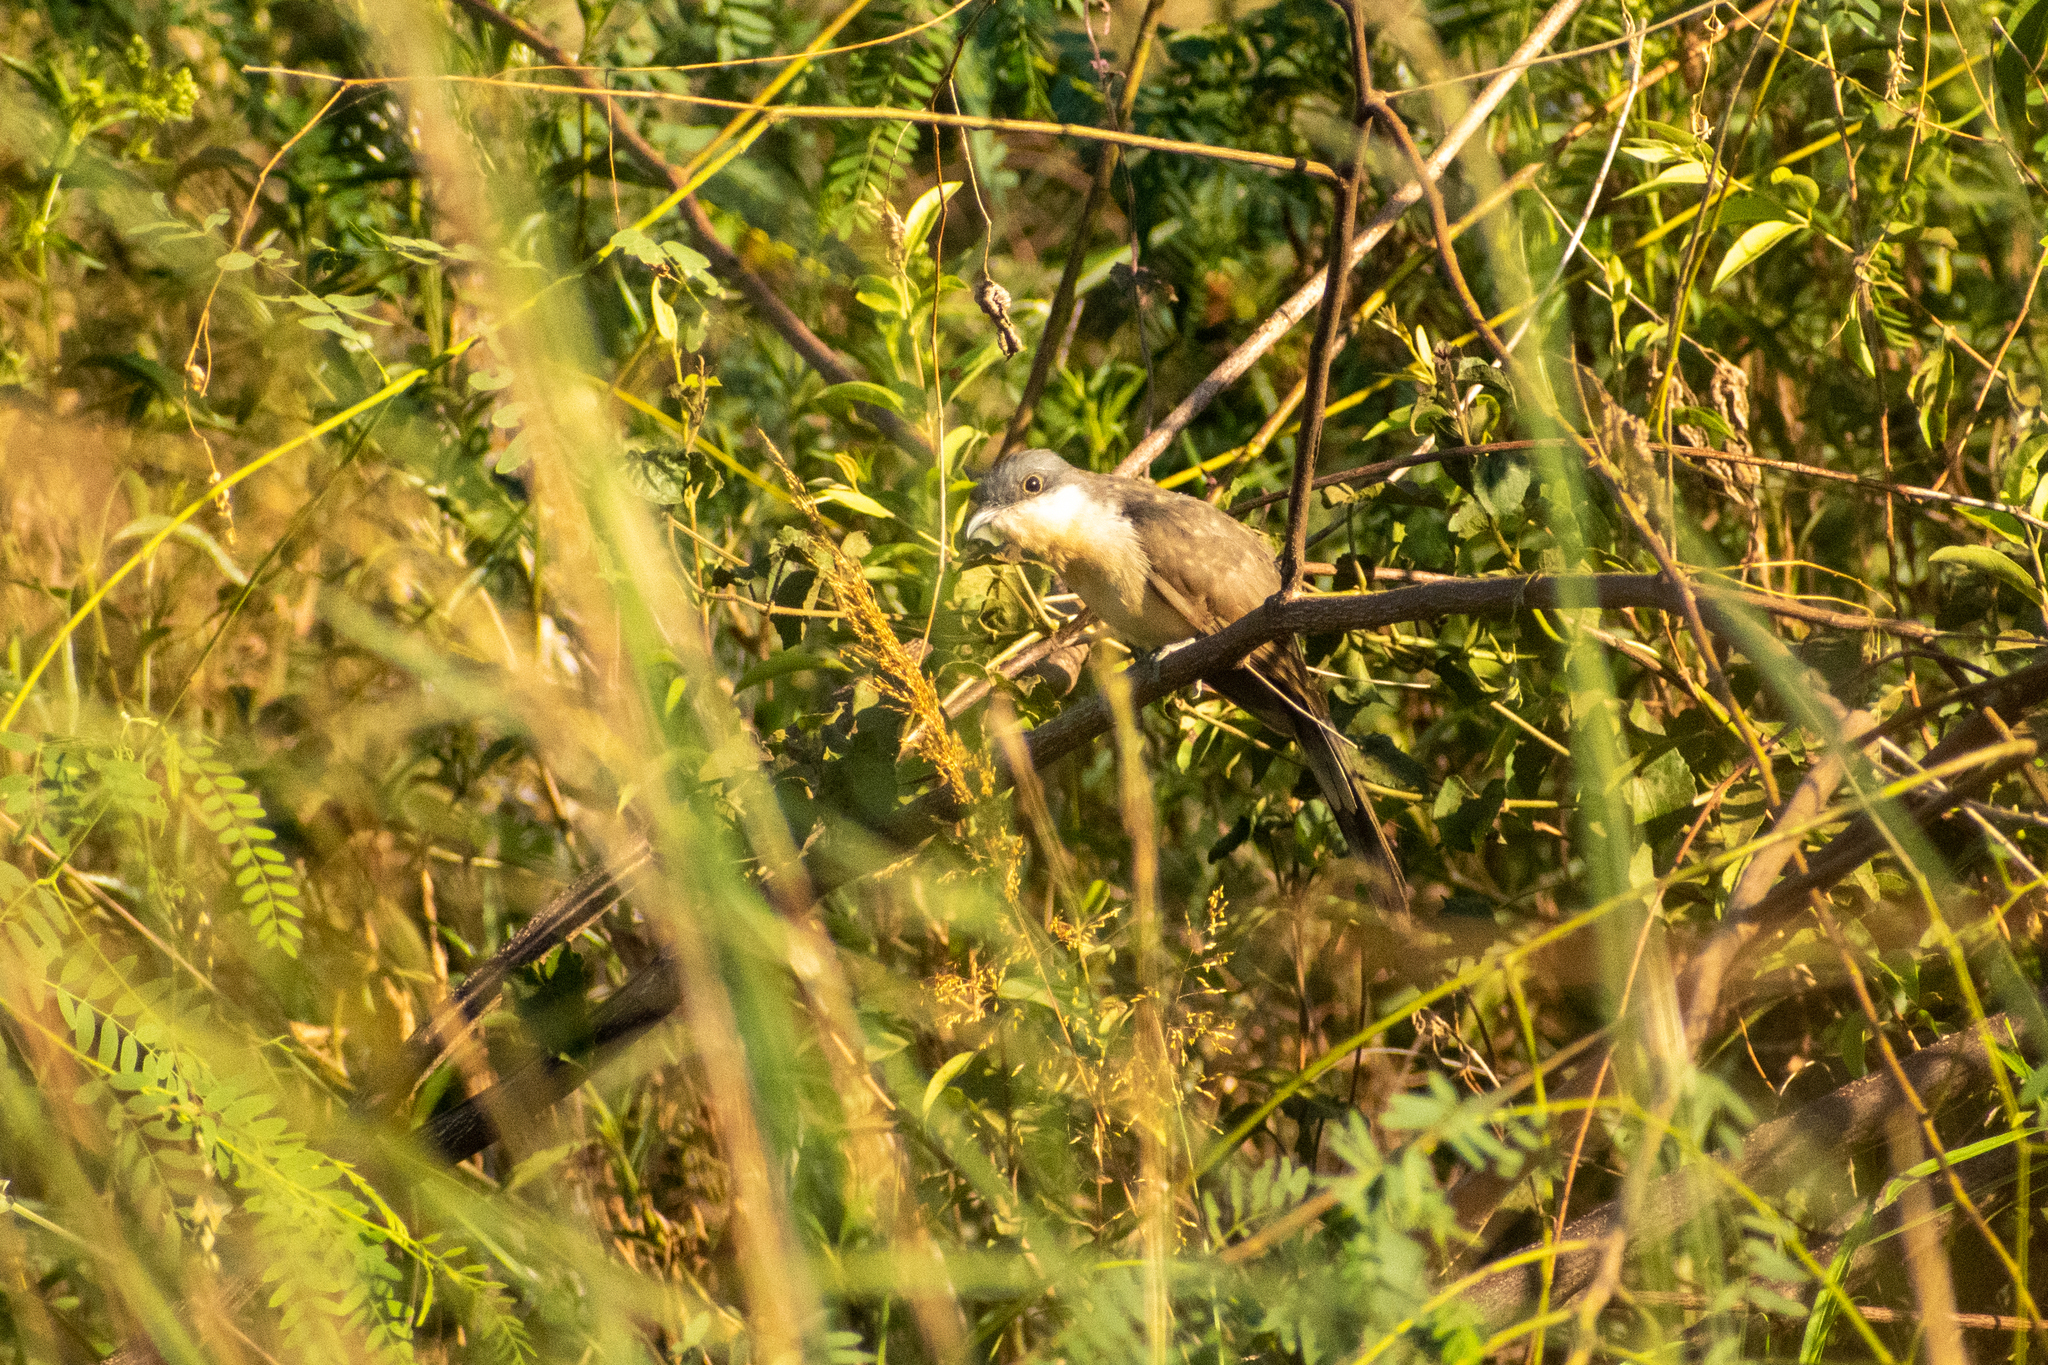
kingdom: Animalia
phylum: Chordata
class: Aves
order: Cuculiformes
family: Cuculidae
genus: Coccyzus
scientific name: Coccyzus melacoryphus
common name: Dark-billed cuckoo
